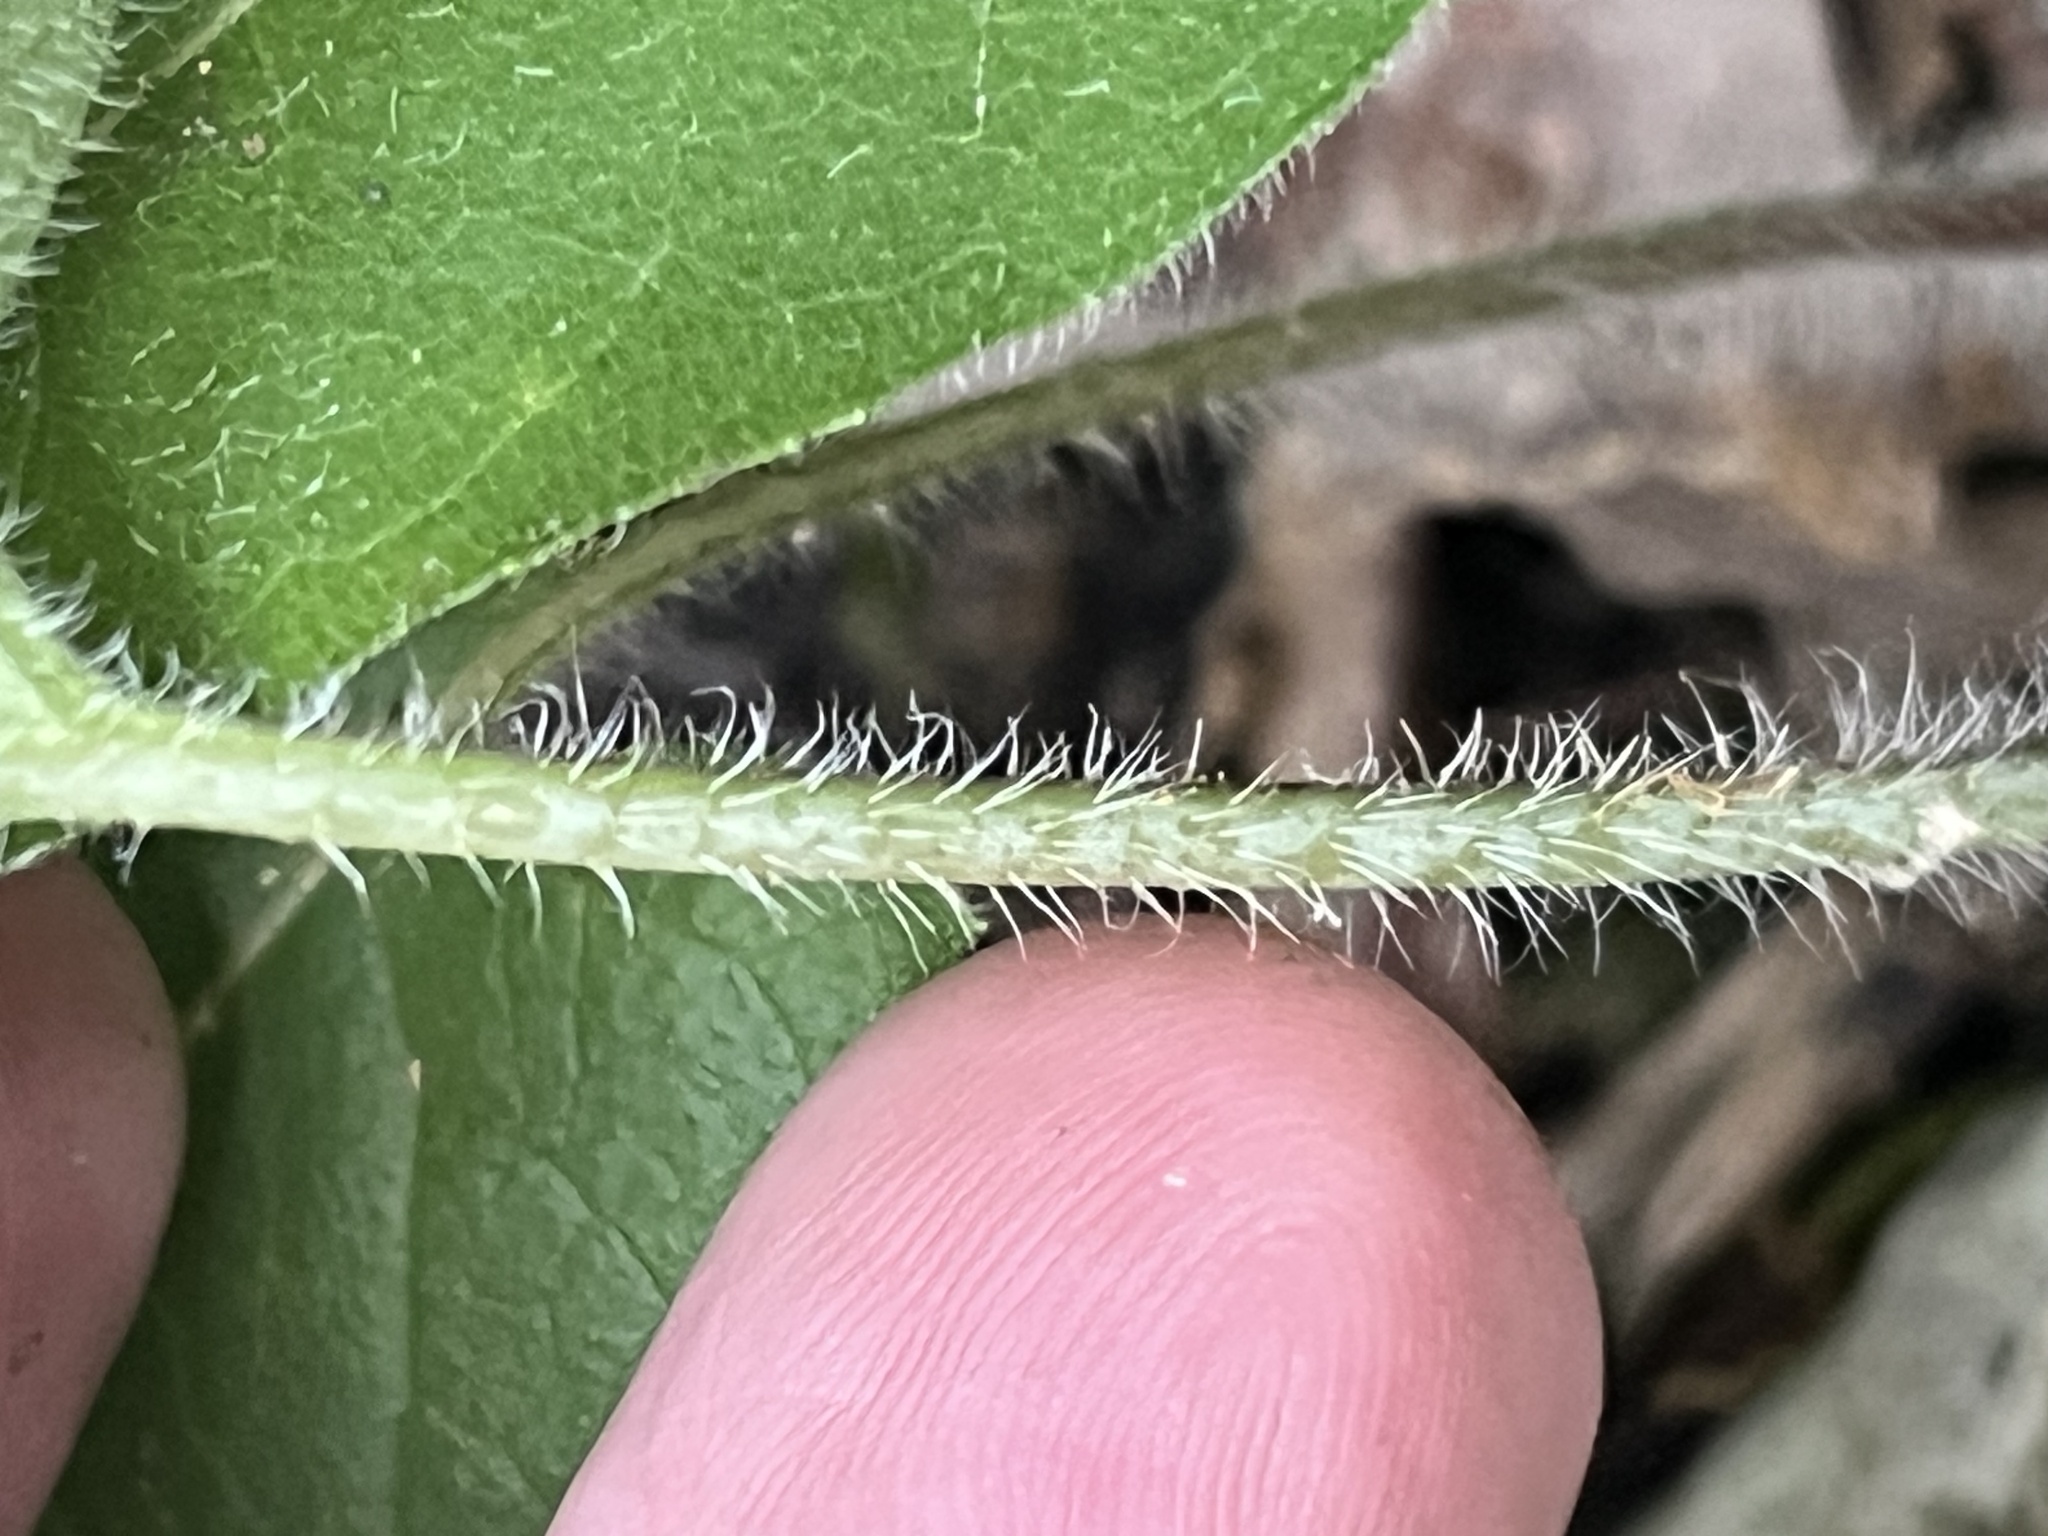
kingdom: Plantae
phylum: Tracheophyta
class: Magnoliopsida
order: Asterales
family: Asteraceae
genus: Silphium
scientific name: Silphium brachiatum
